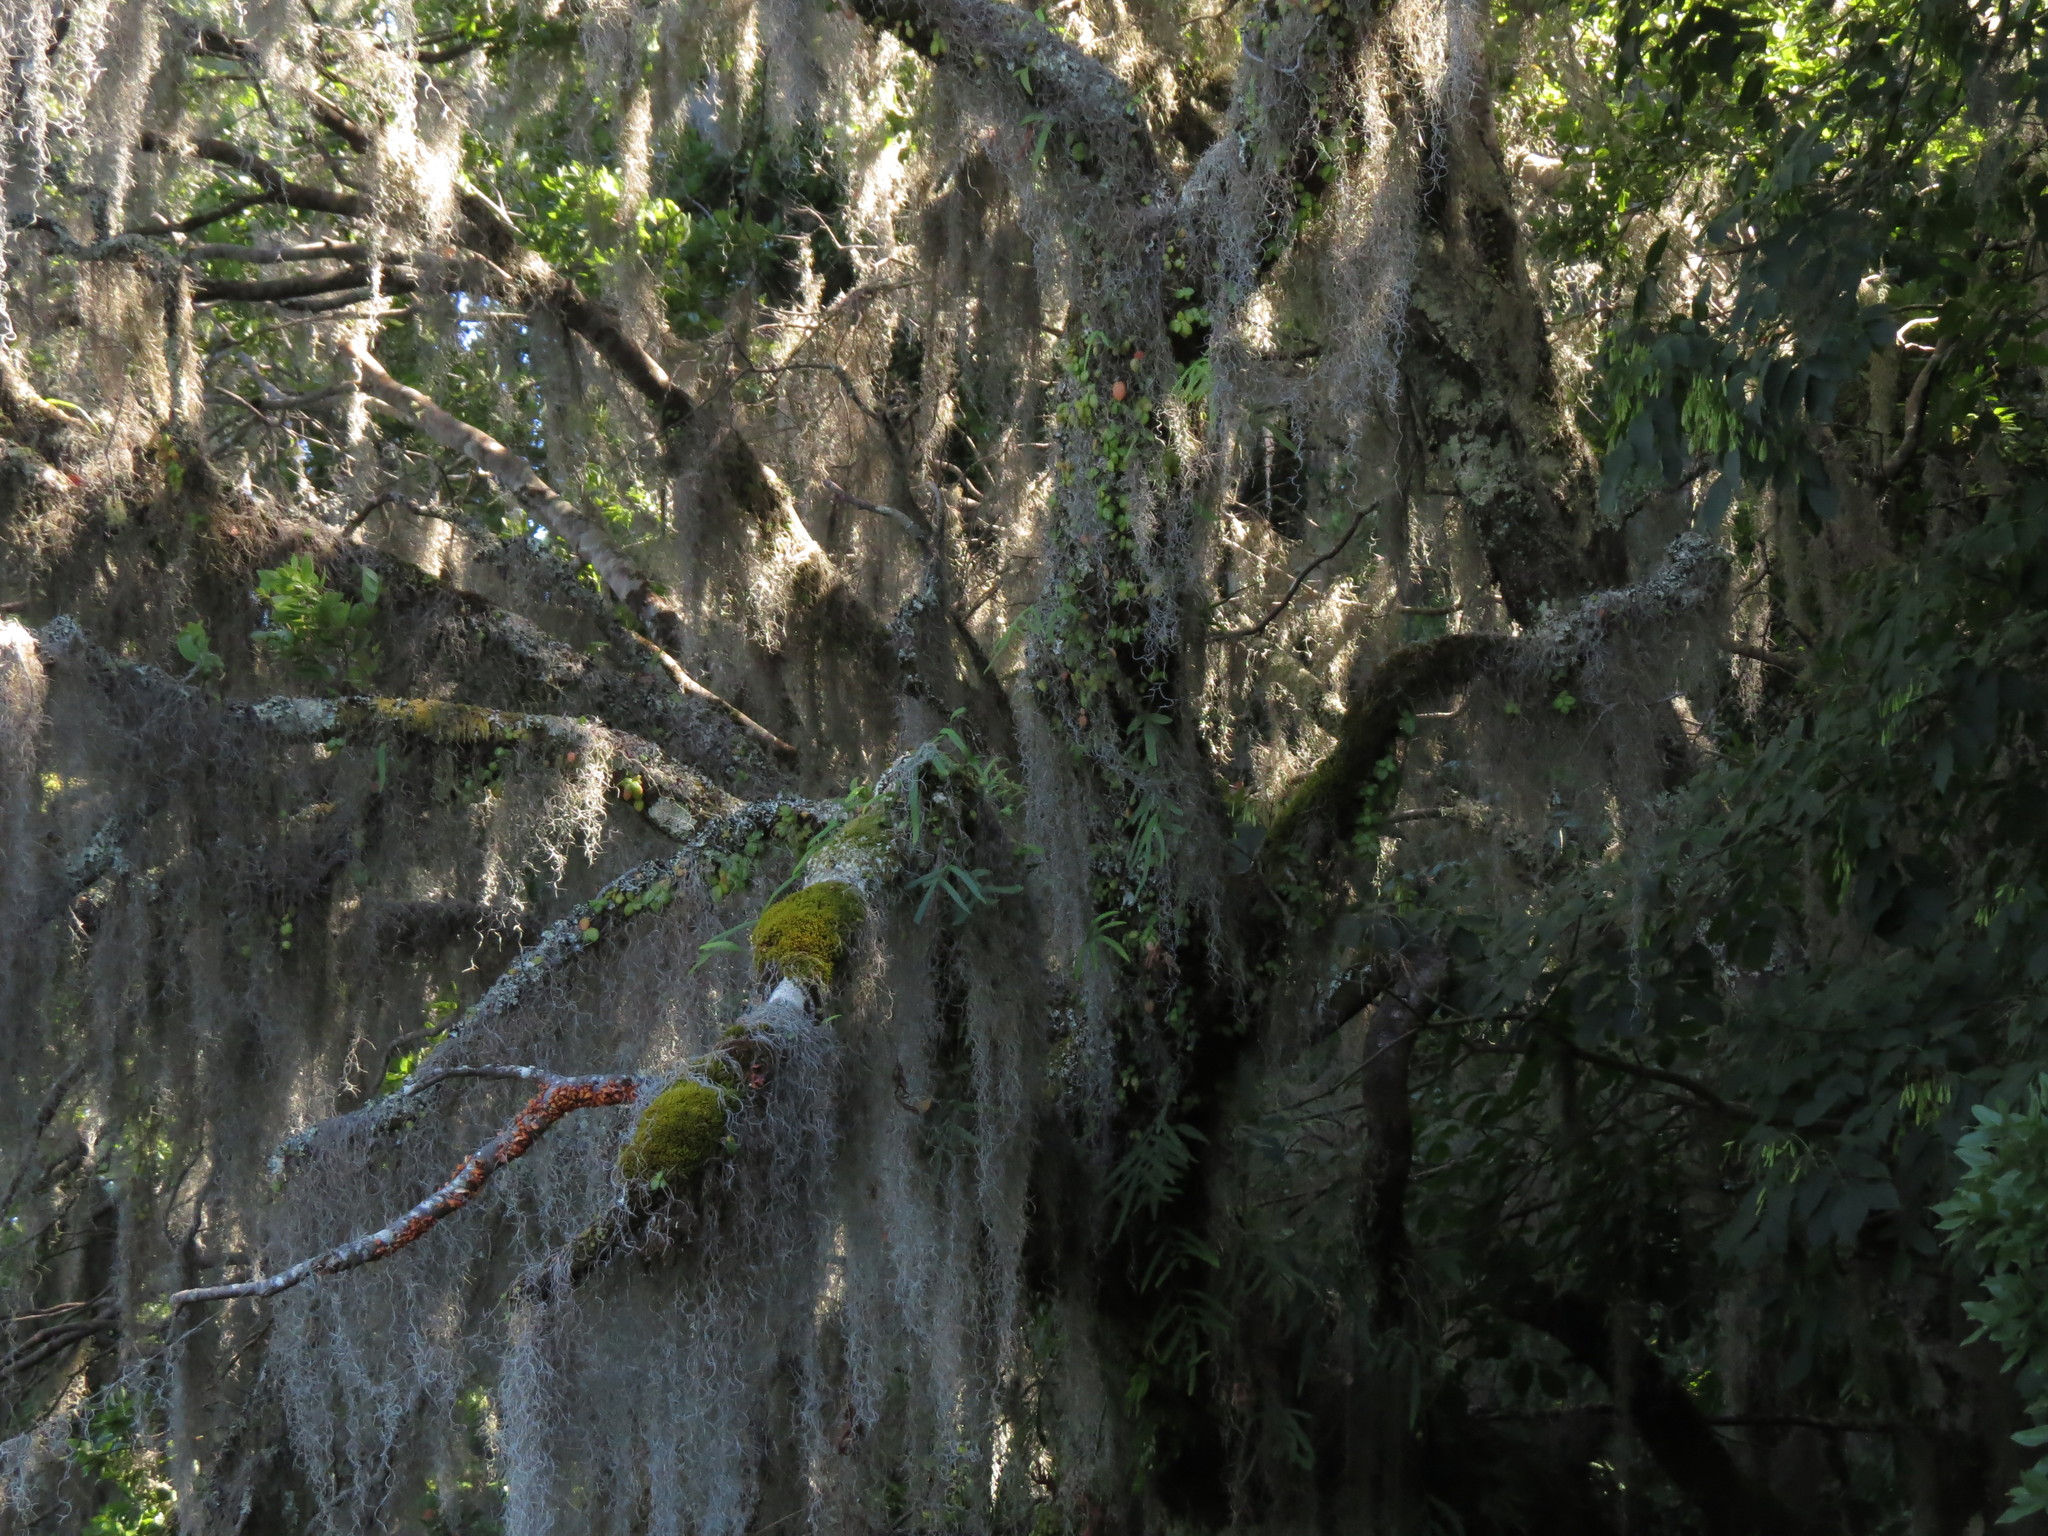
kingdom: Plantae
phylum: Tracheophyta
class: Liliopsida
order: Poales
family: Bromeliaceae
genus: Tillandsia
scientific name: Tillandsia usneoides
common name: Spanish moss
